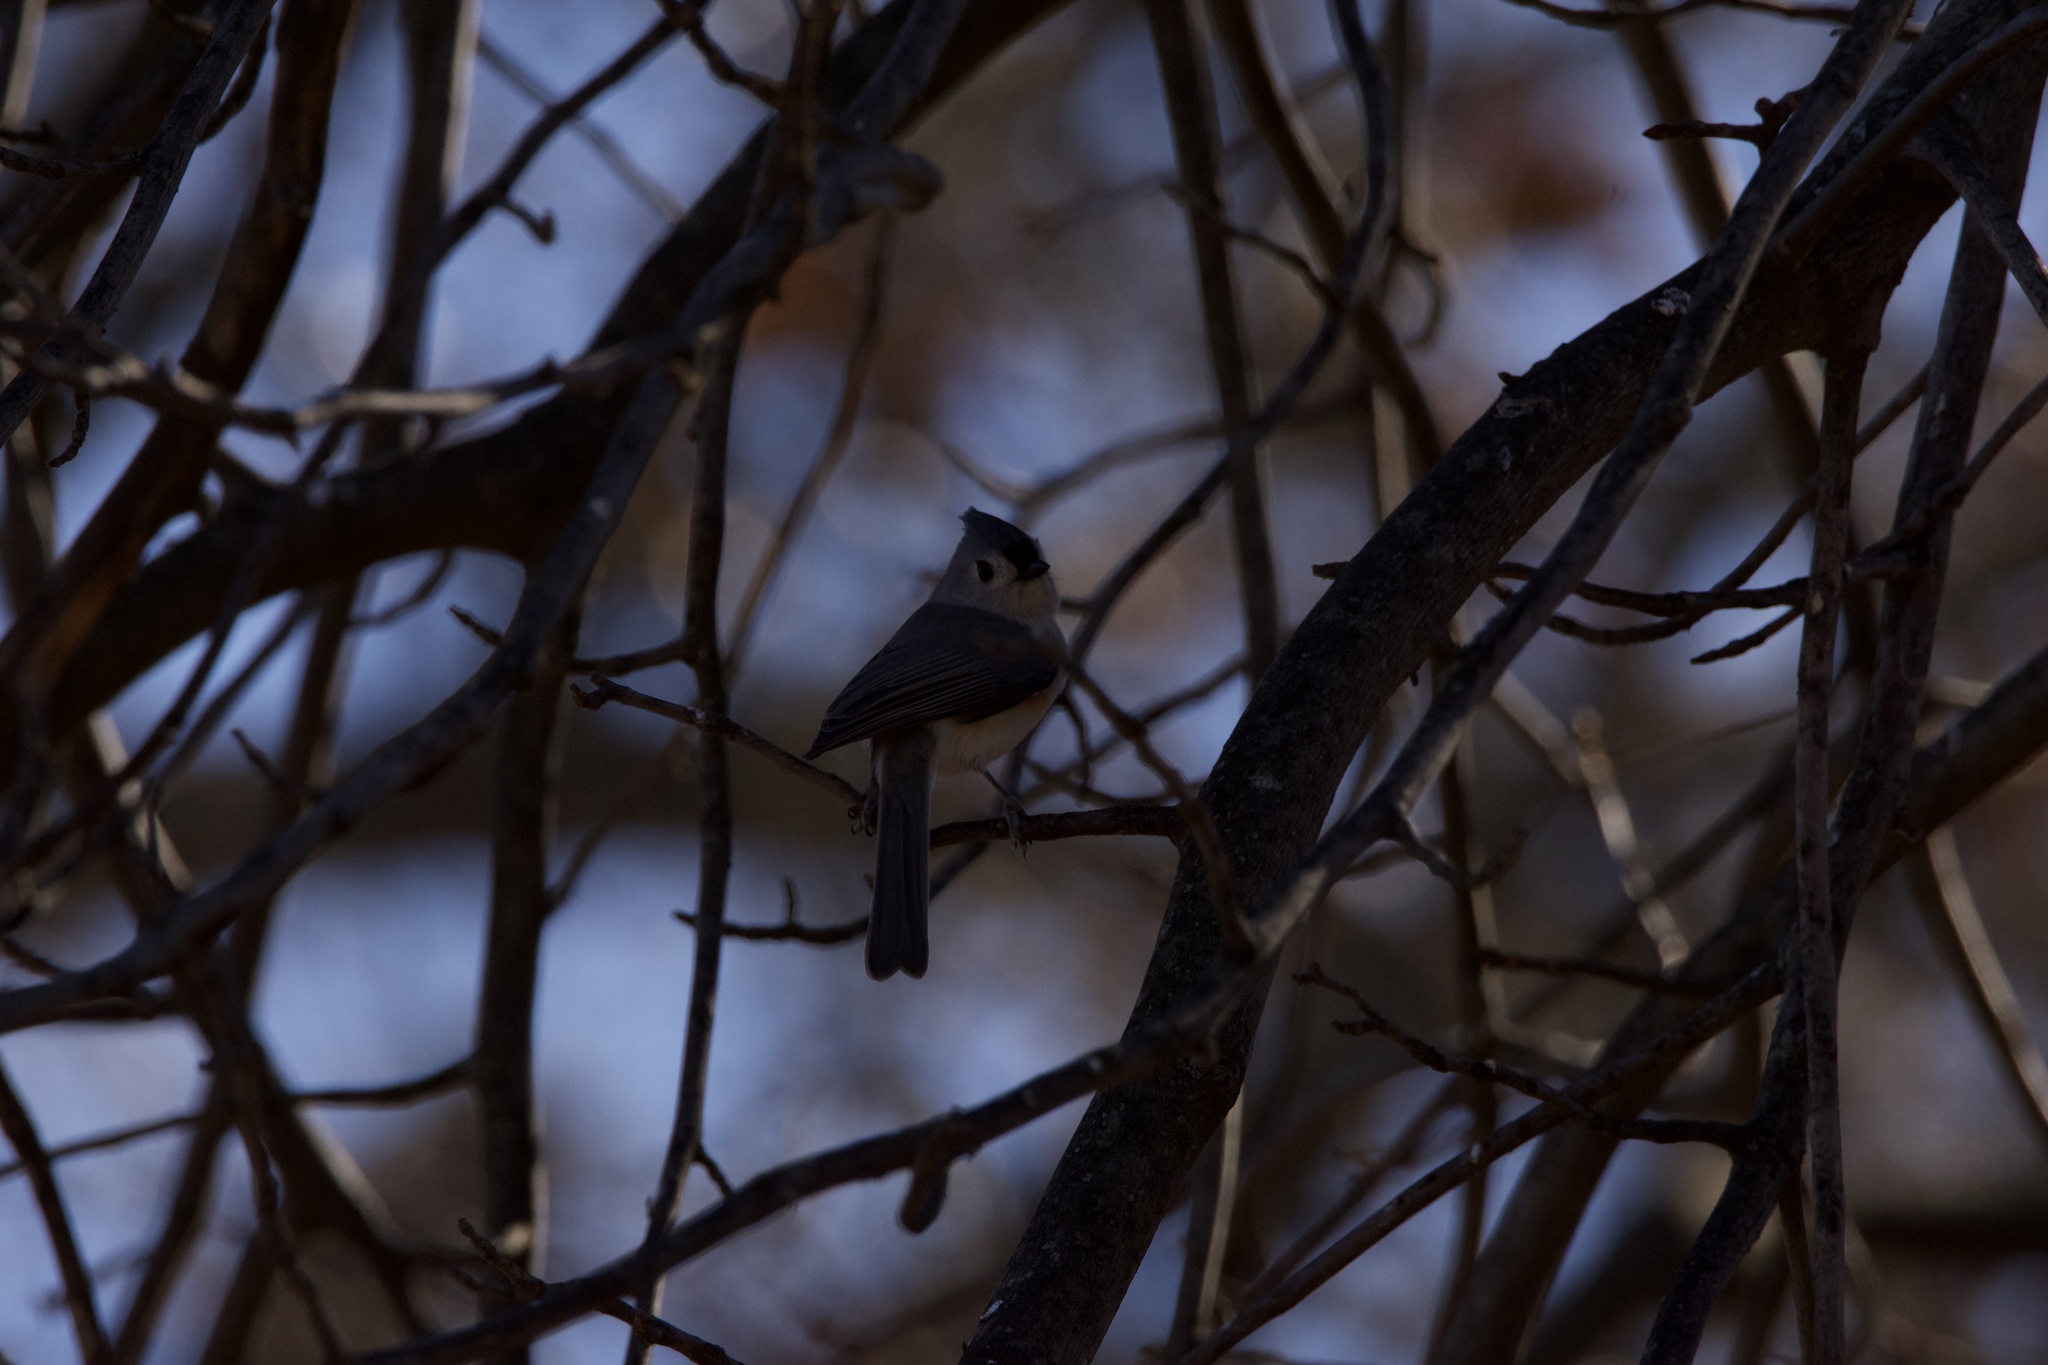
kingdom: Animalia
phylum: Chordata
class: Aves
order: Passeriformes
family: Paridae
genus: Baeolophus
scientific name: Baeolophus bicolor
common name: Tufted titmouse
